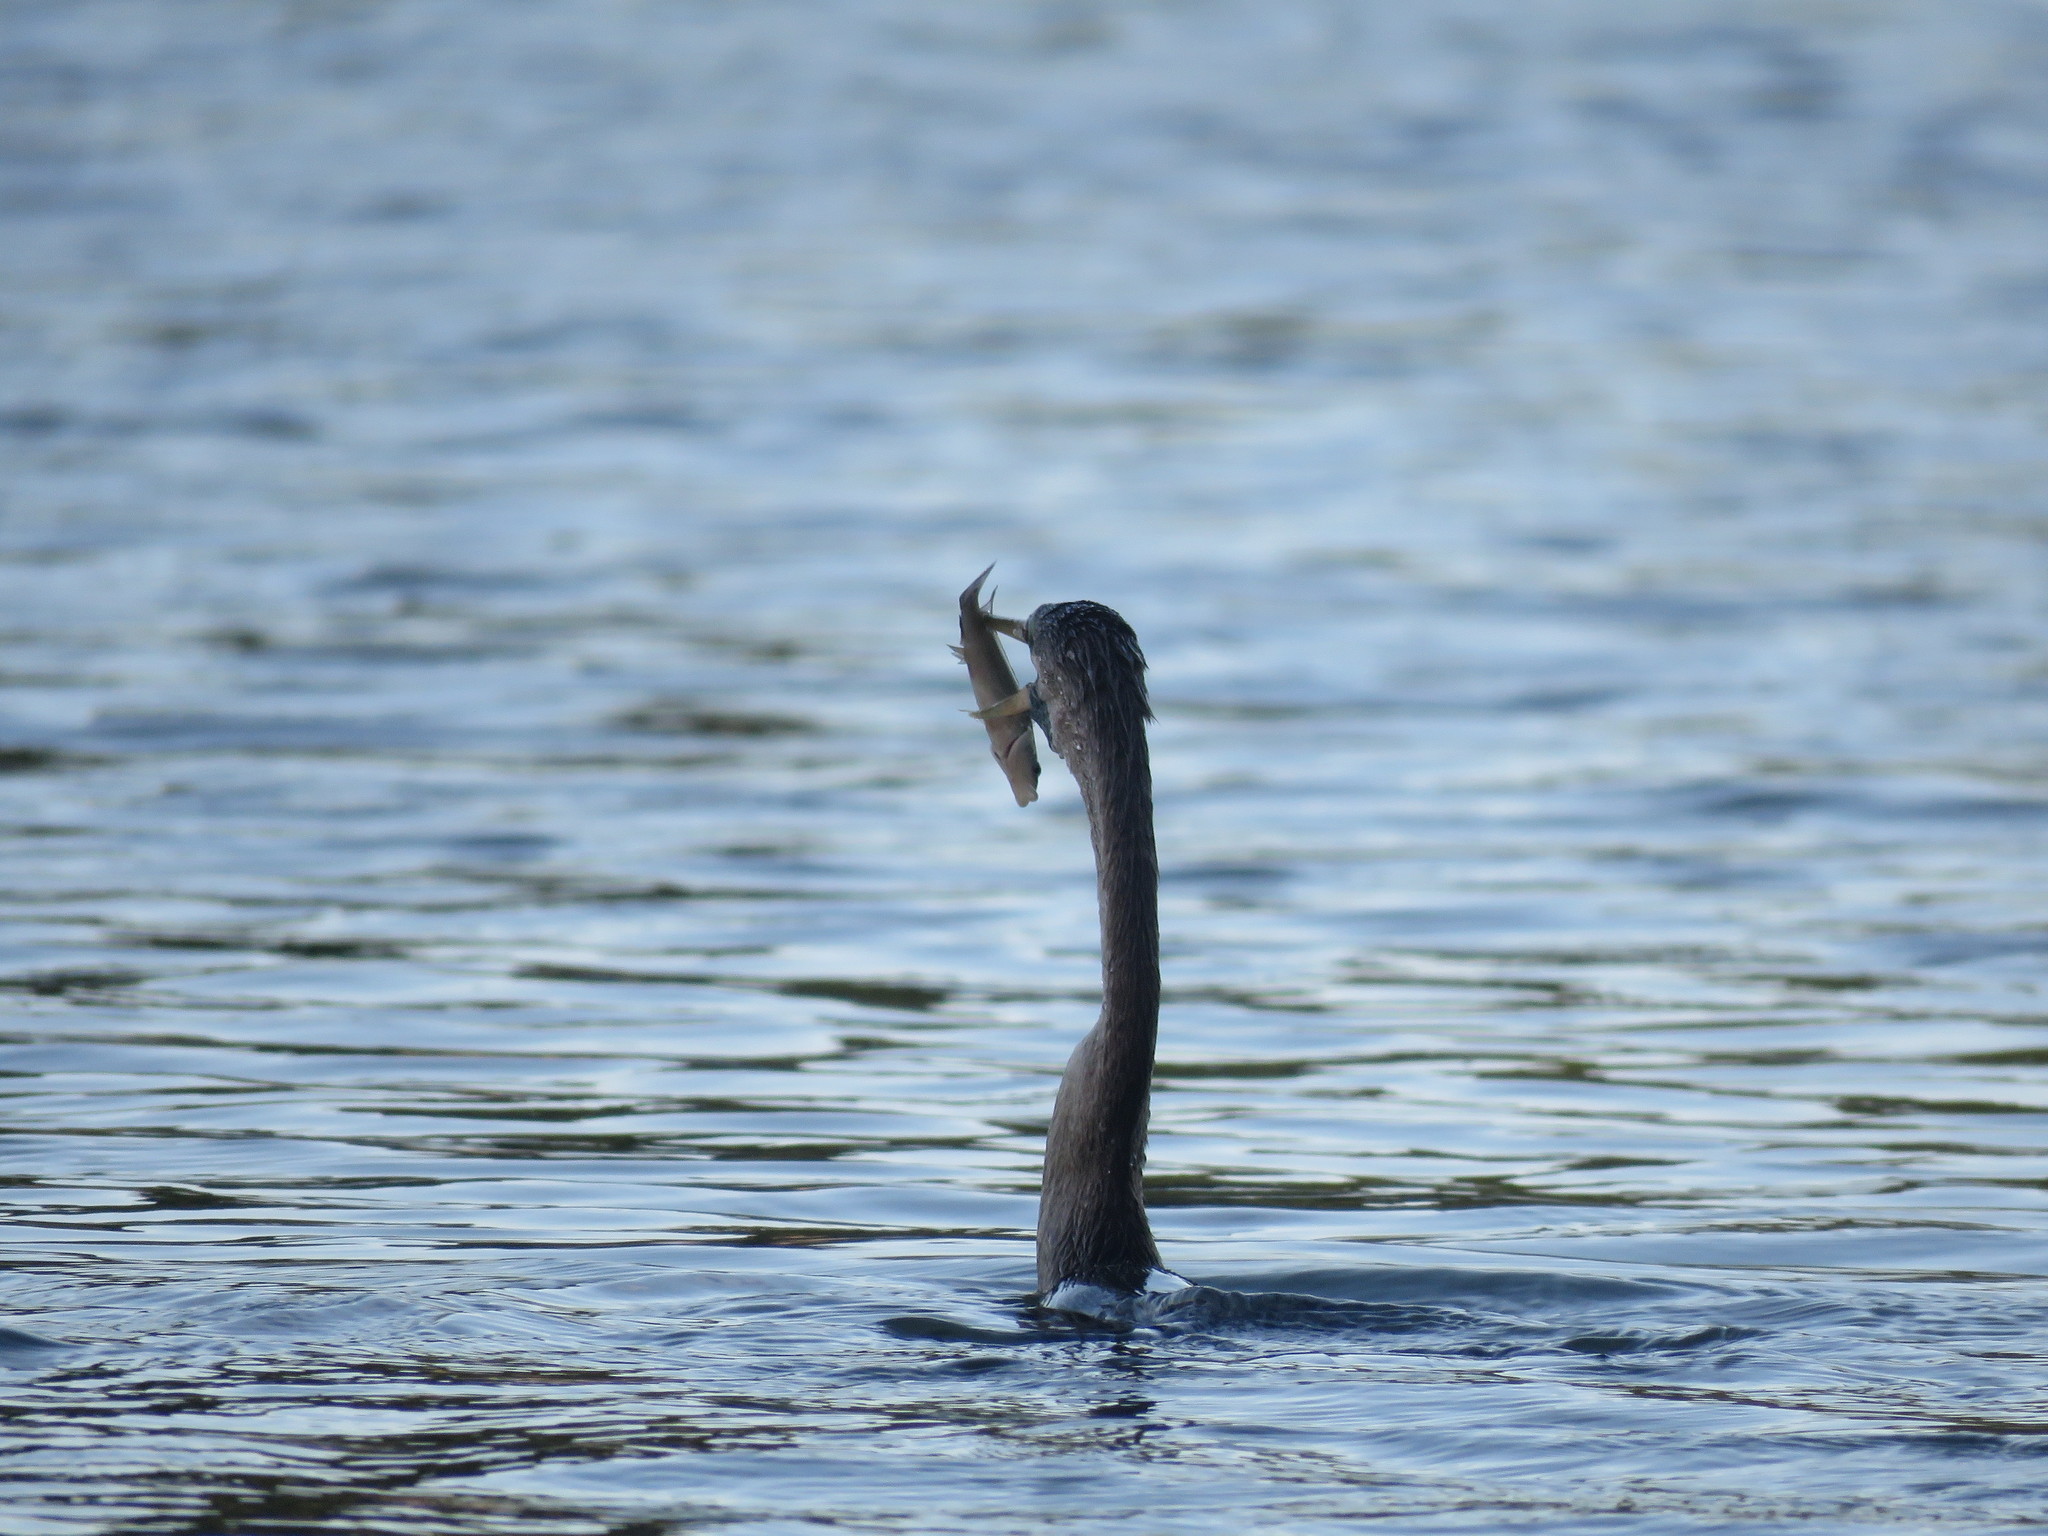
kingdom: Animalia
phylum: Chordata
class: Aves
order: Suliformes
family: Anhingidae
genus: Anhinga
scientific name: Anhinga anhinga
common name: Anhinga
